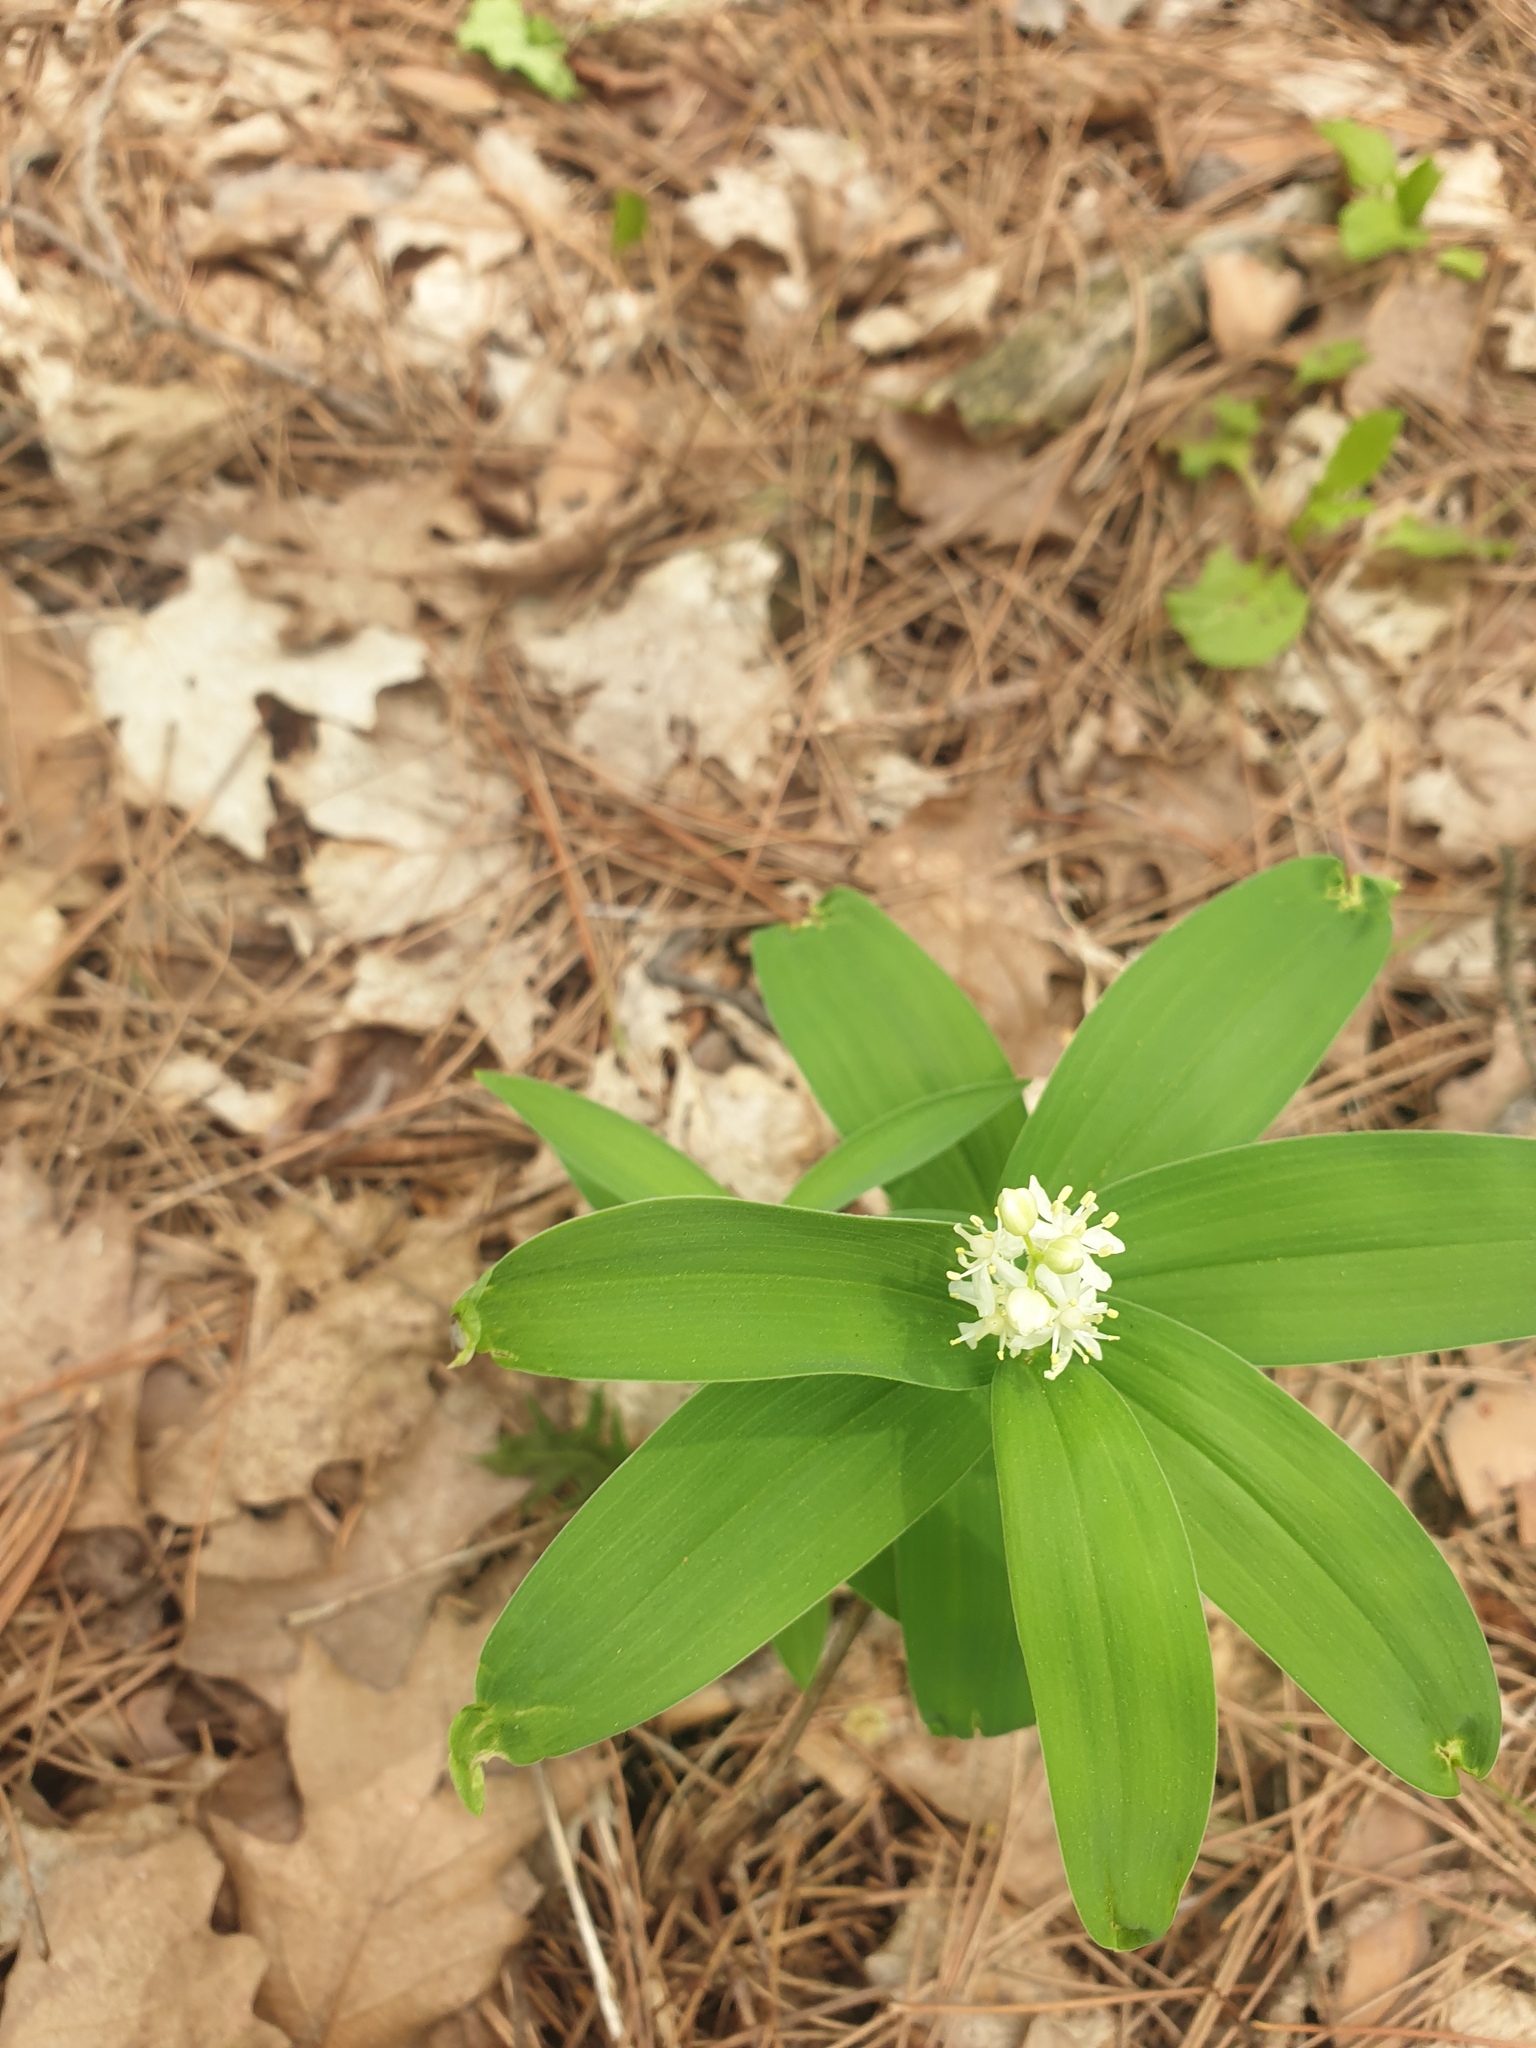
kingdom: Plantae
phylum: Tracheophyta
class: Liliopsida
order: Asparagales
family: Asparagaceae
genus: Maianthemum
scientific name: Maianthemum stellatum
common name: Little false solomon's seal
